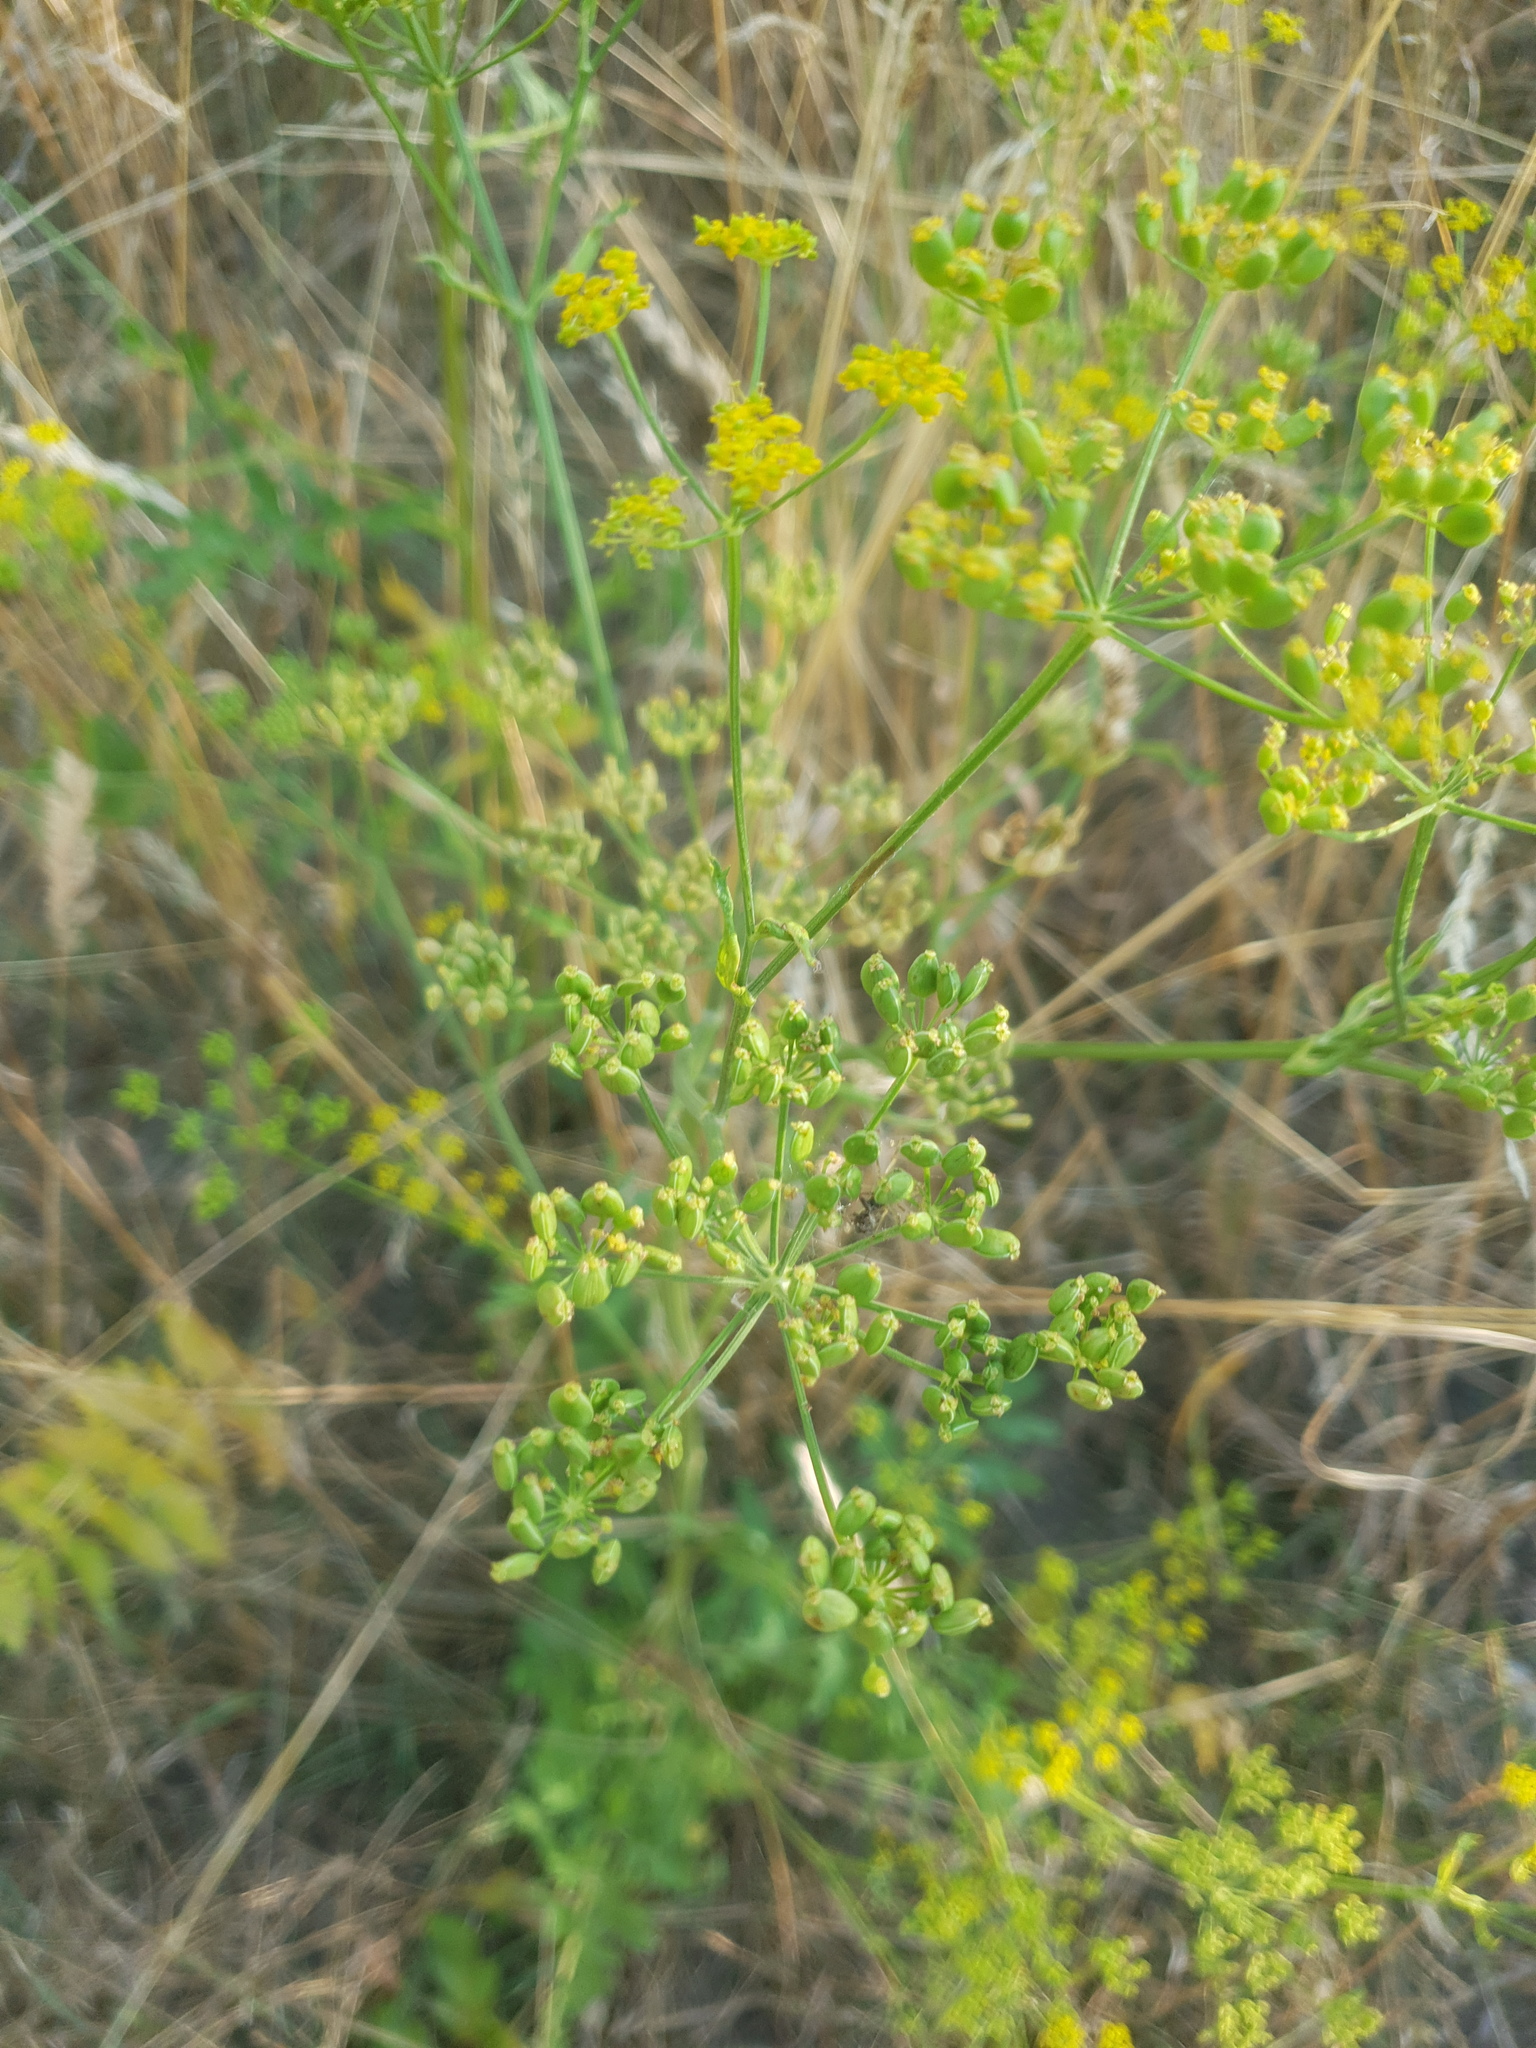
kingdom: Plantae
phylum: Tracheophyta
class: Magnoliopsida
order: Apiales
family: Apiaceae
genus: Pastinaca
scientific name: Pastinaca sativa
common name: Wild parsnip
